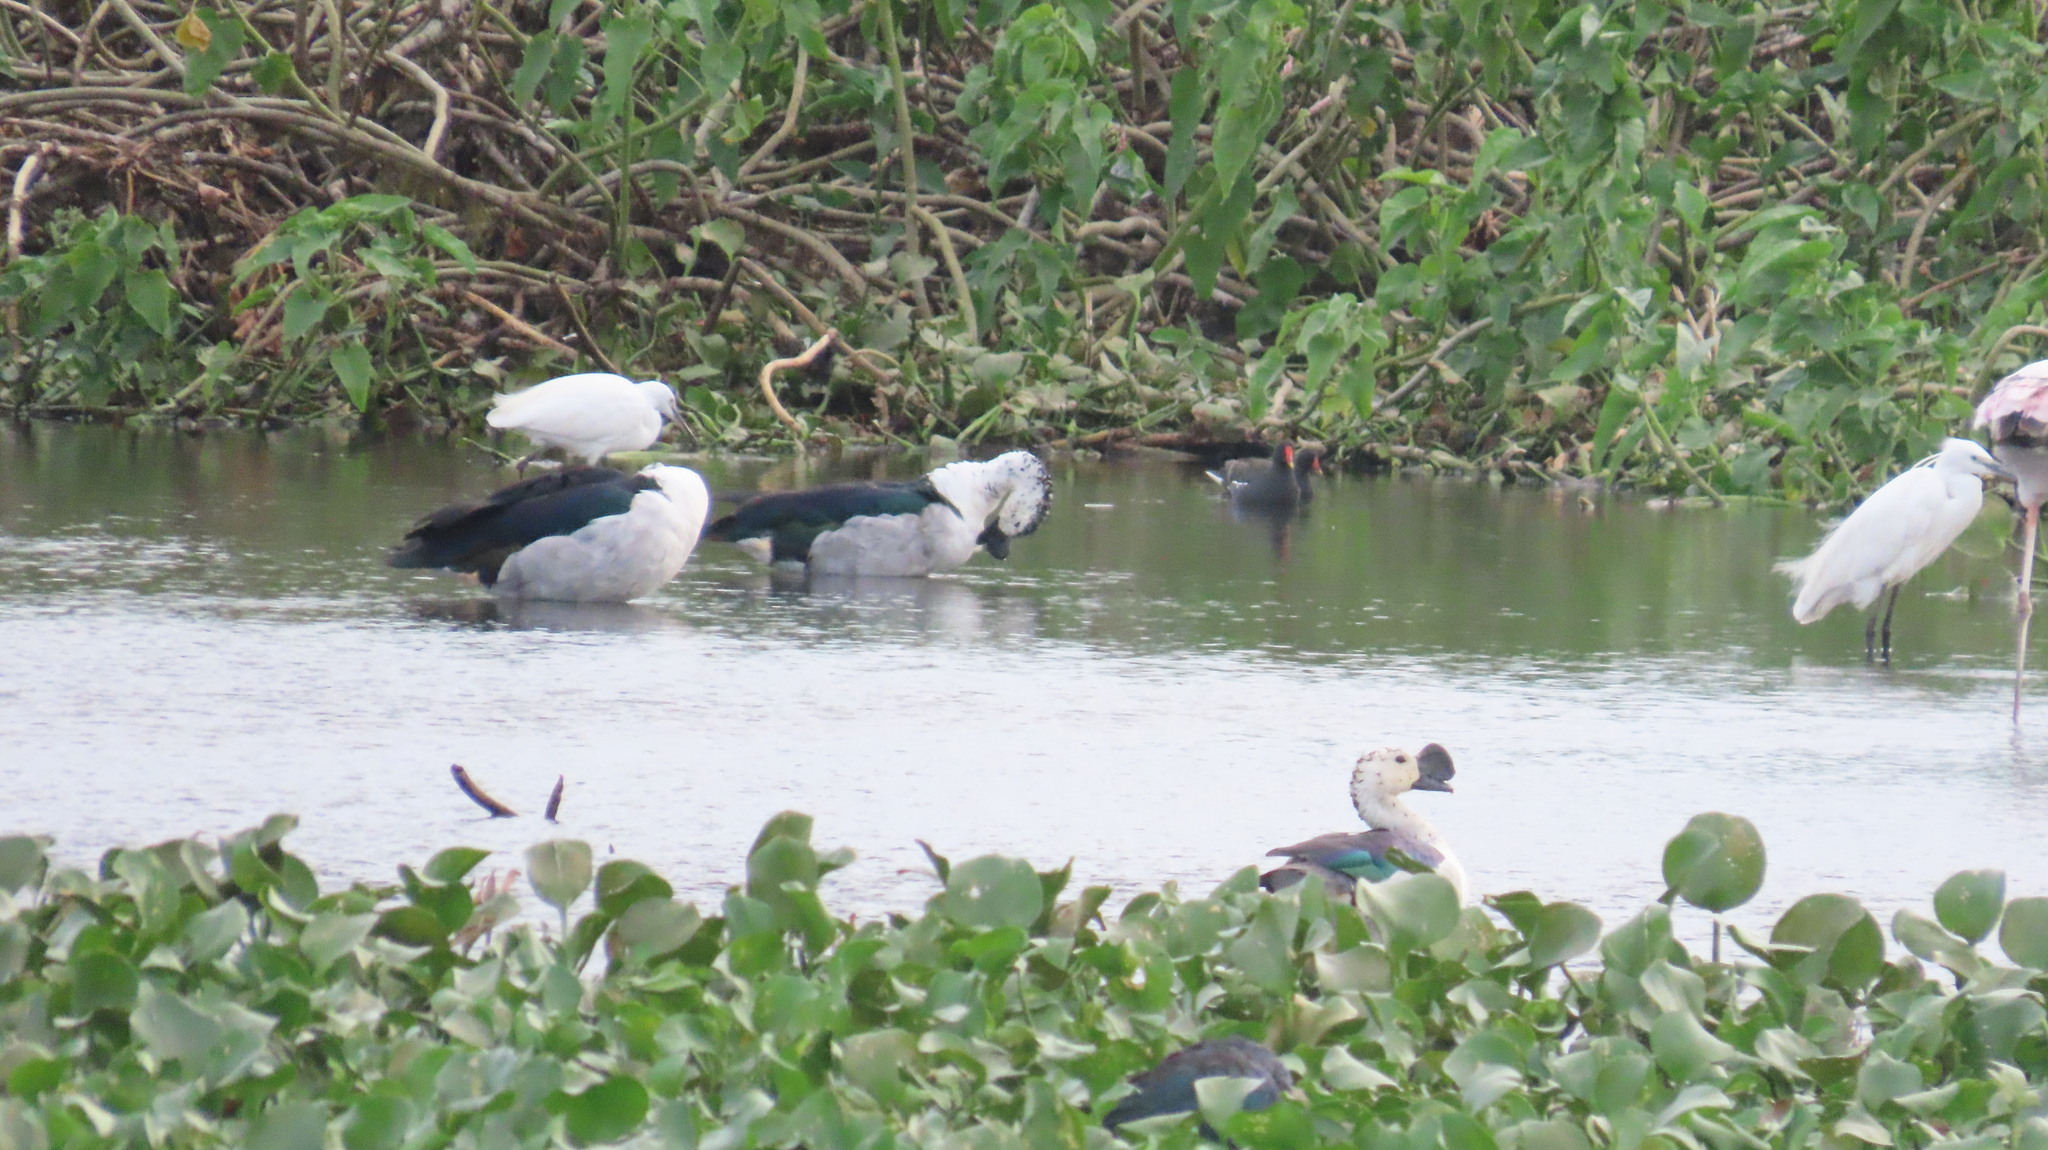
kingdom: Animalia
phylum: Chordata
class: Aves
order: Pelecaniformes
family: Ardeidae
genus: Egretta
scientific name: Egretta garzetta
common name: Little egret
